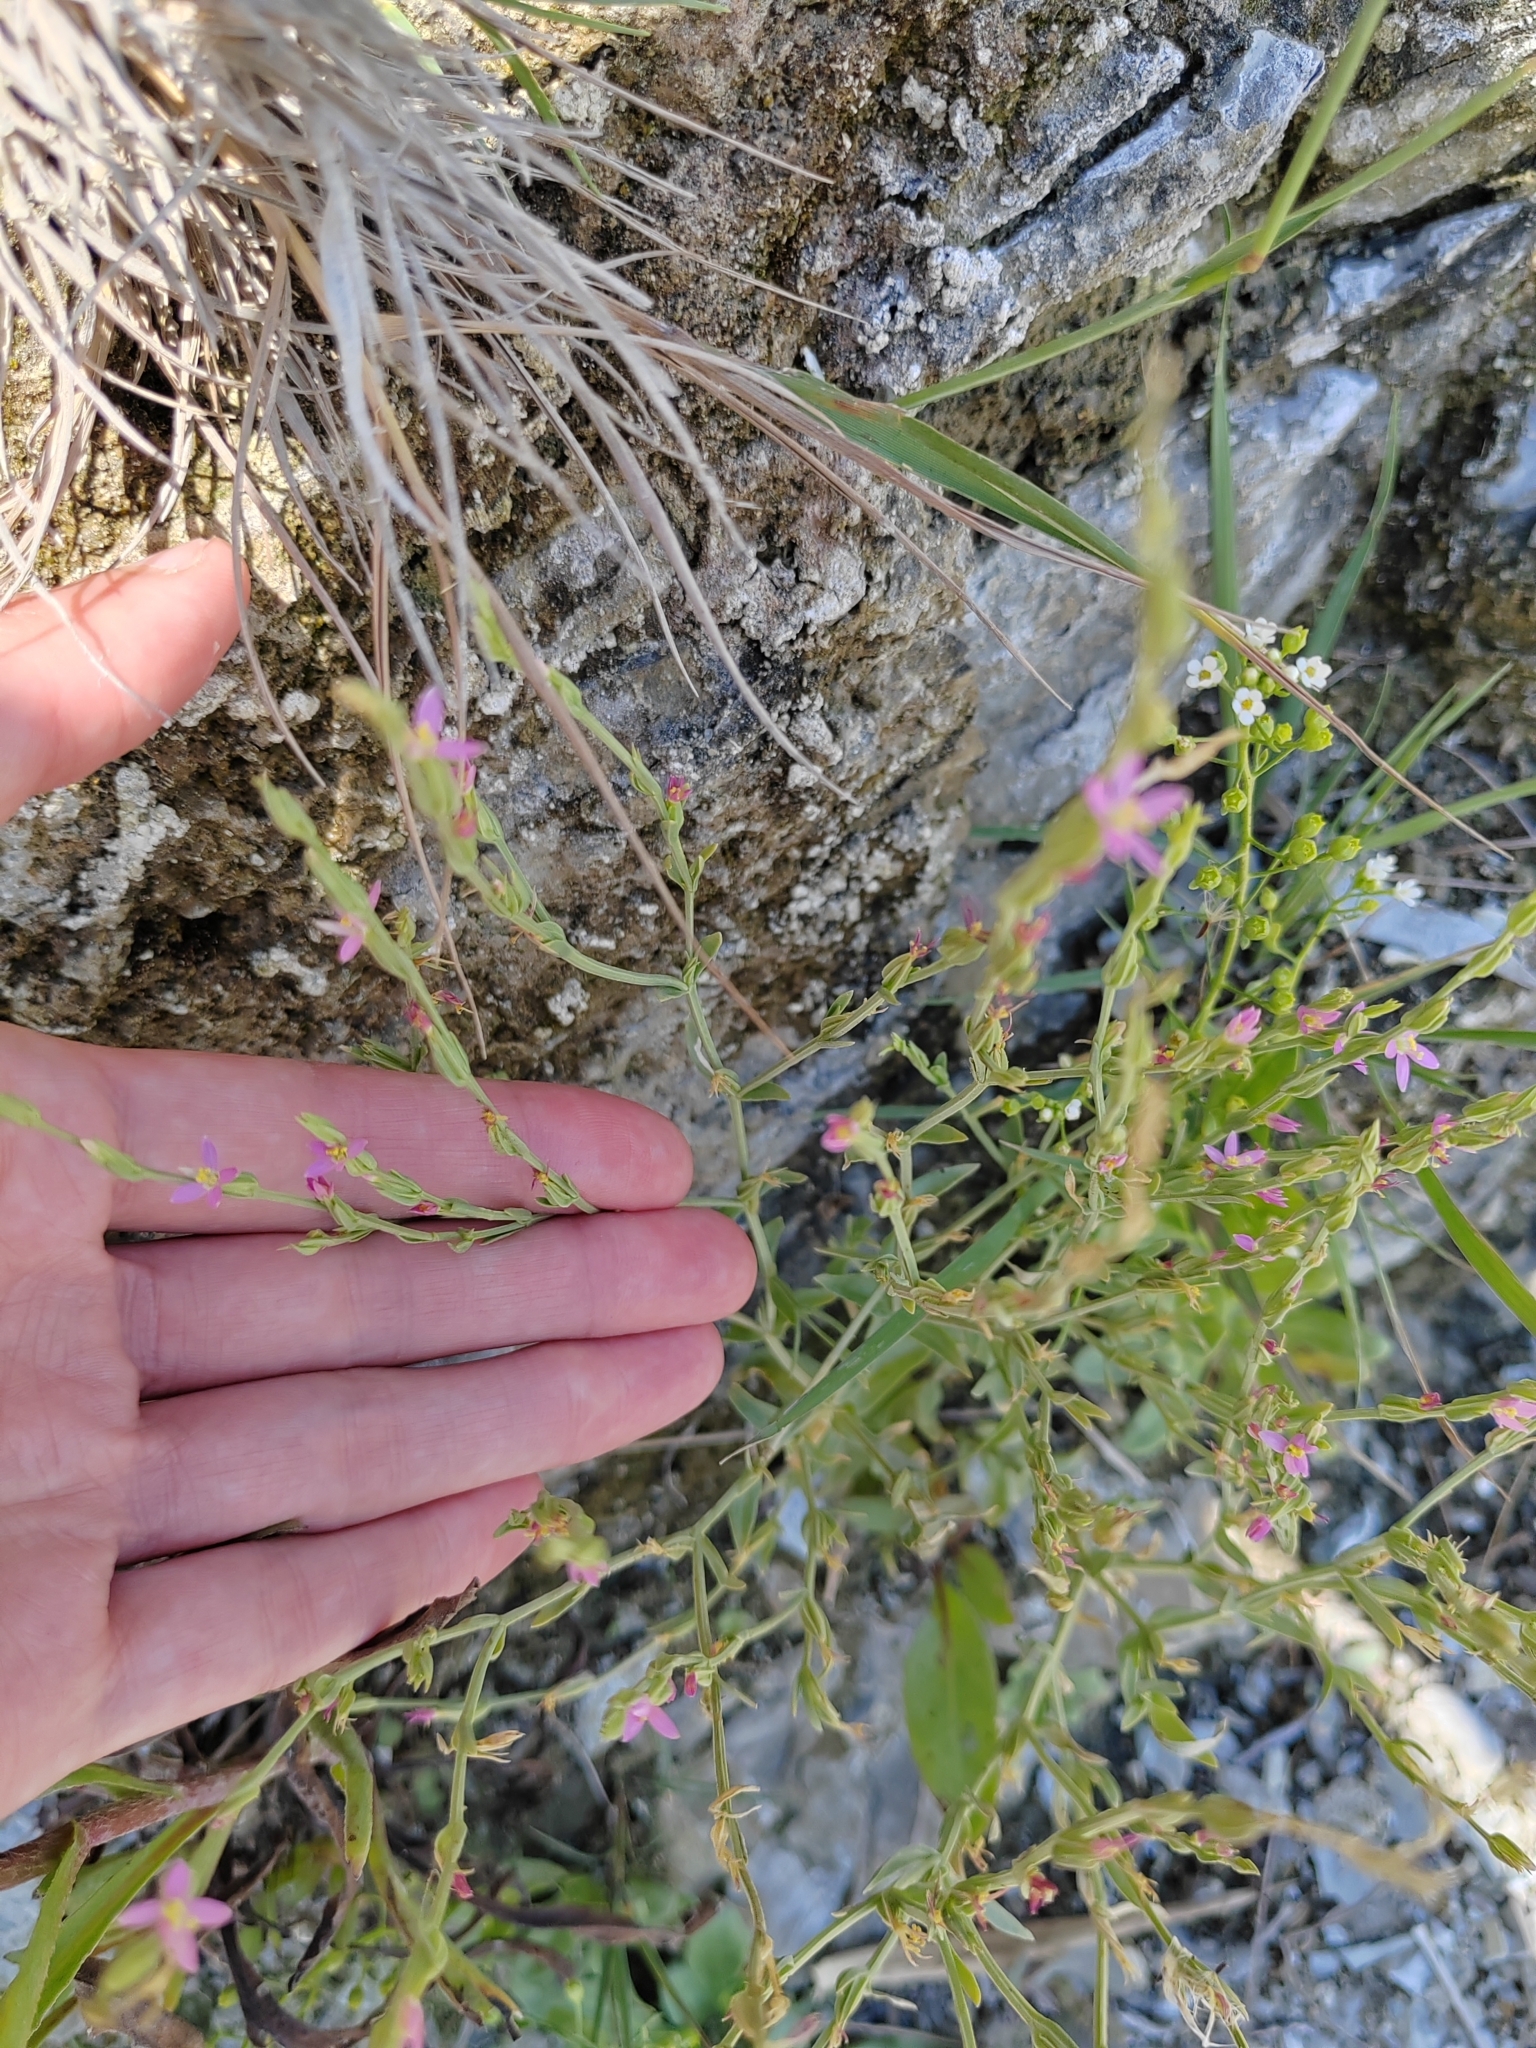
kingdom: Plantae
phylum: Tracheophyta
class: Magnoliopsida
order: Gentianales
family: Gentianaceae
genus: Schenkia
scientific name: Schenkia spicata
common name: Spiked centaury
